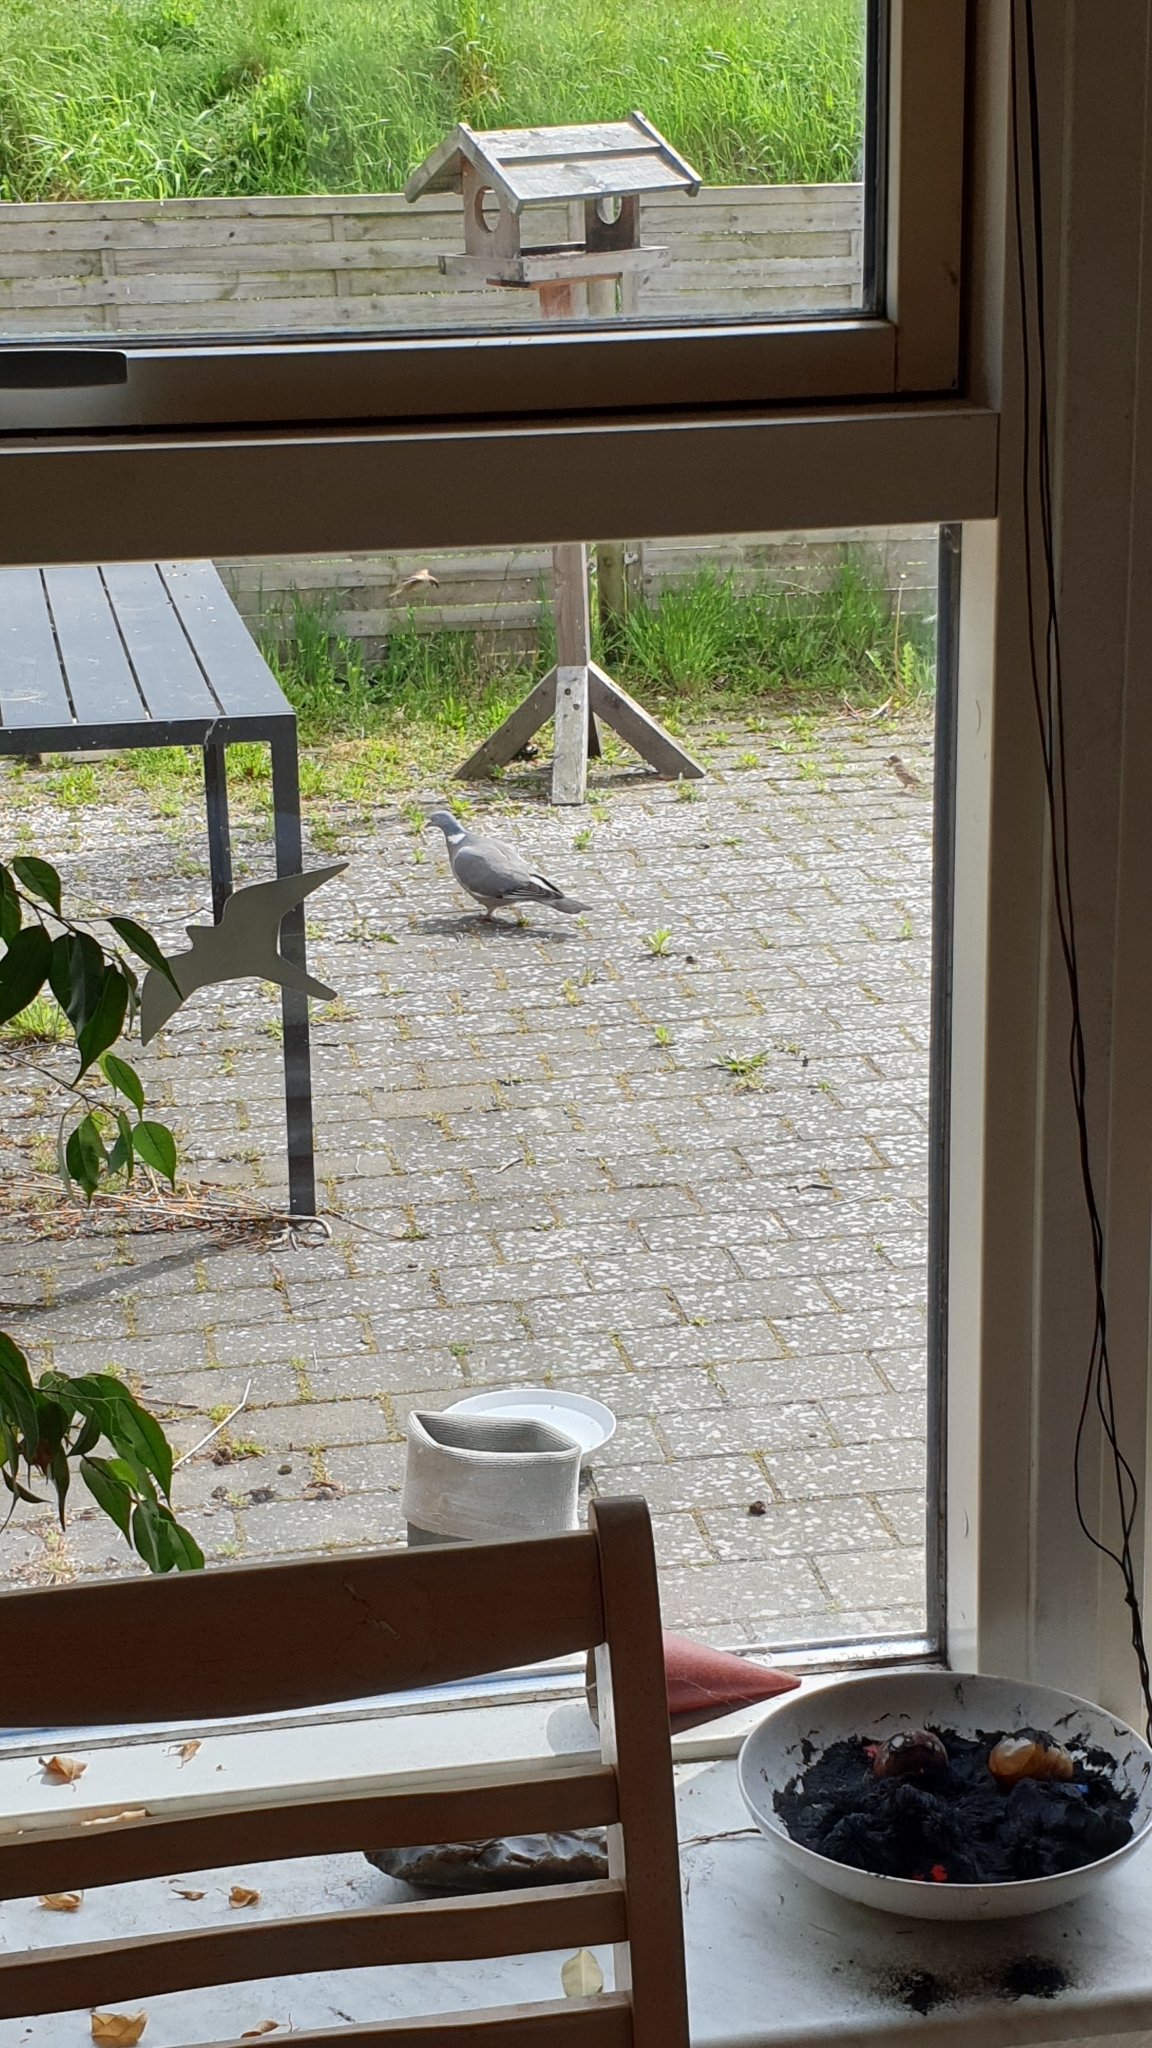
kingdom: Animalia
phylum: Chordata
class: Aves
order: Columbiformes
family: Columbidae
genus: Columba
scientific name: Columba palumbus
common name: Common wood pigeon
